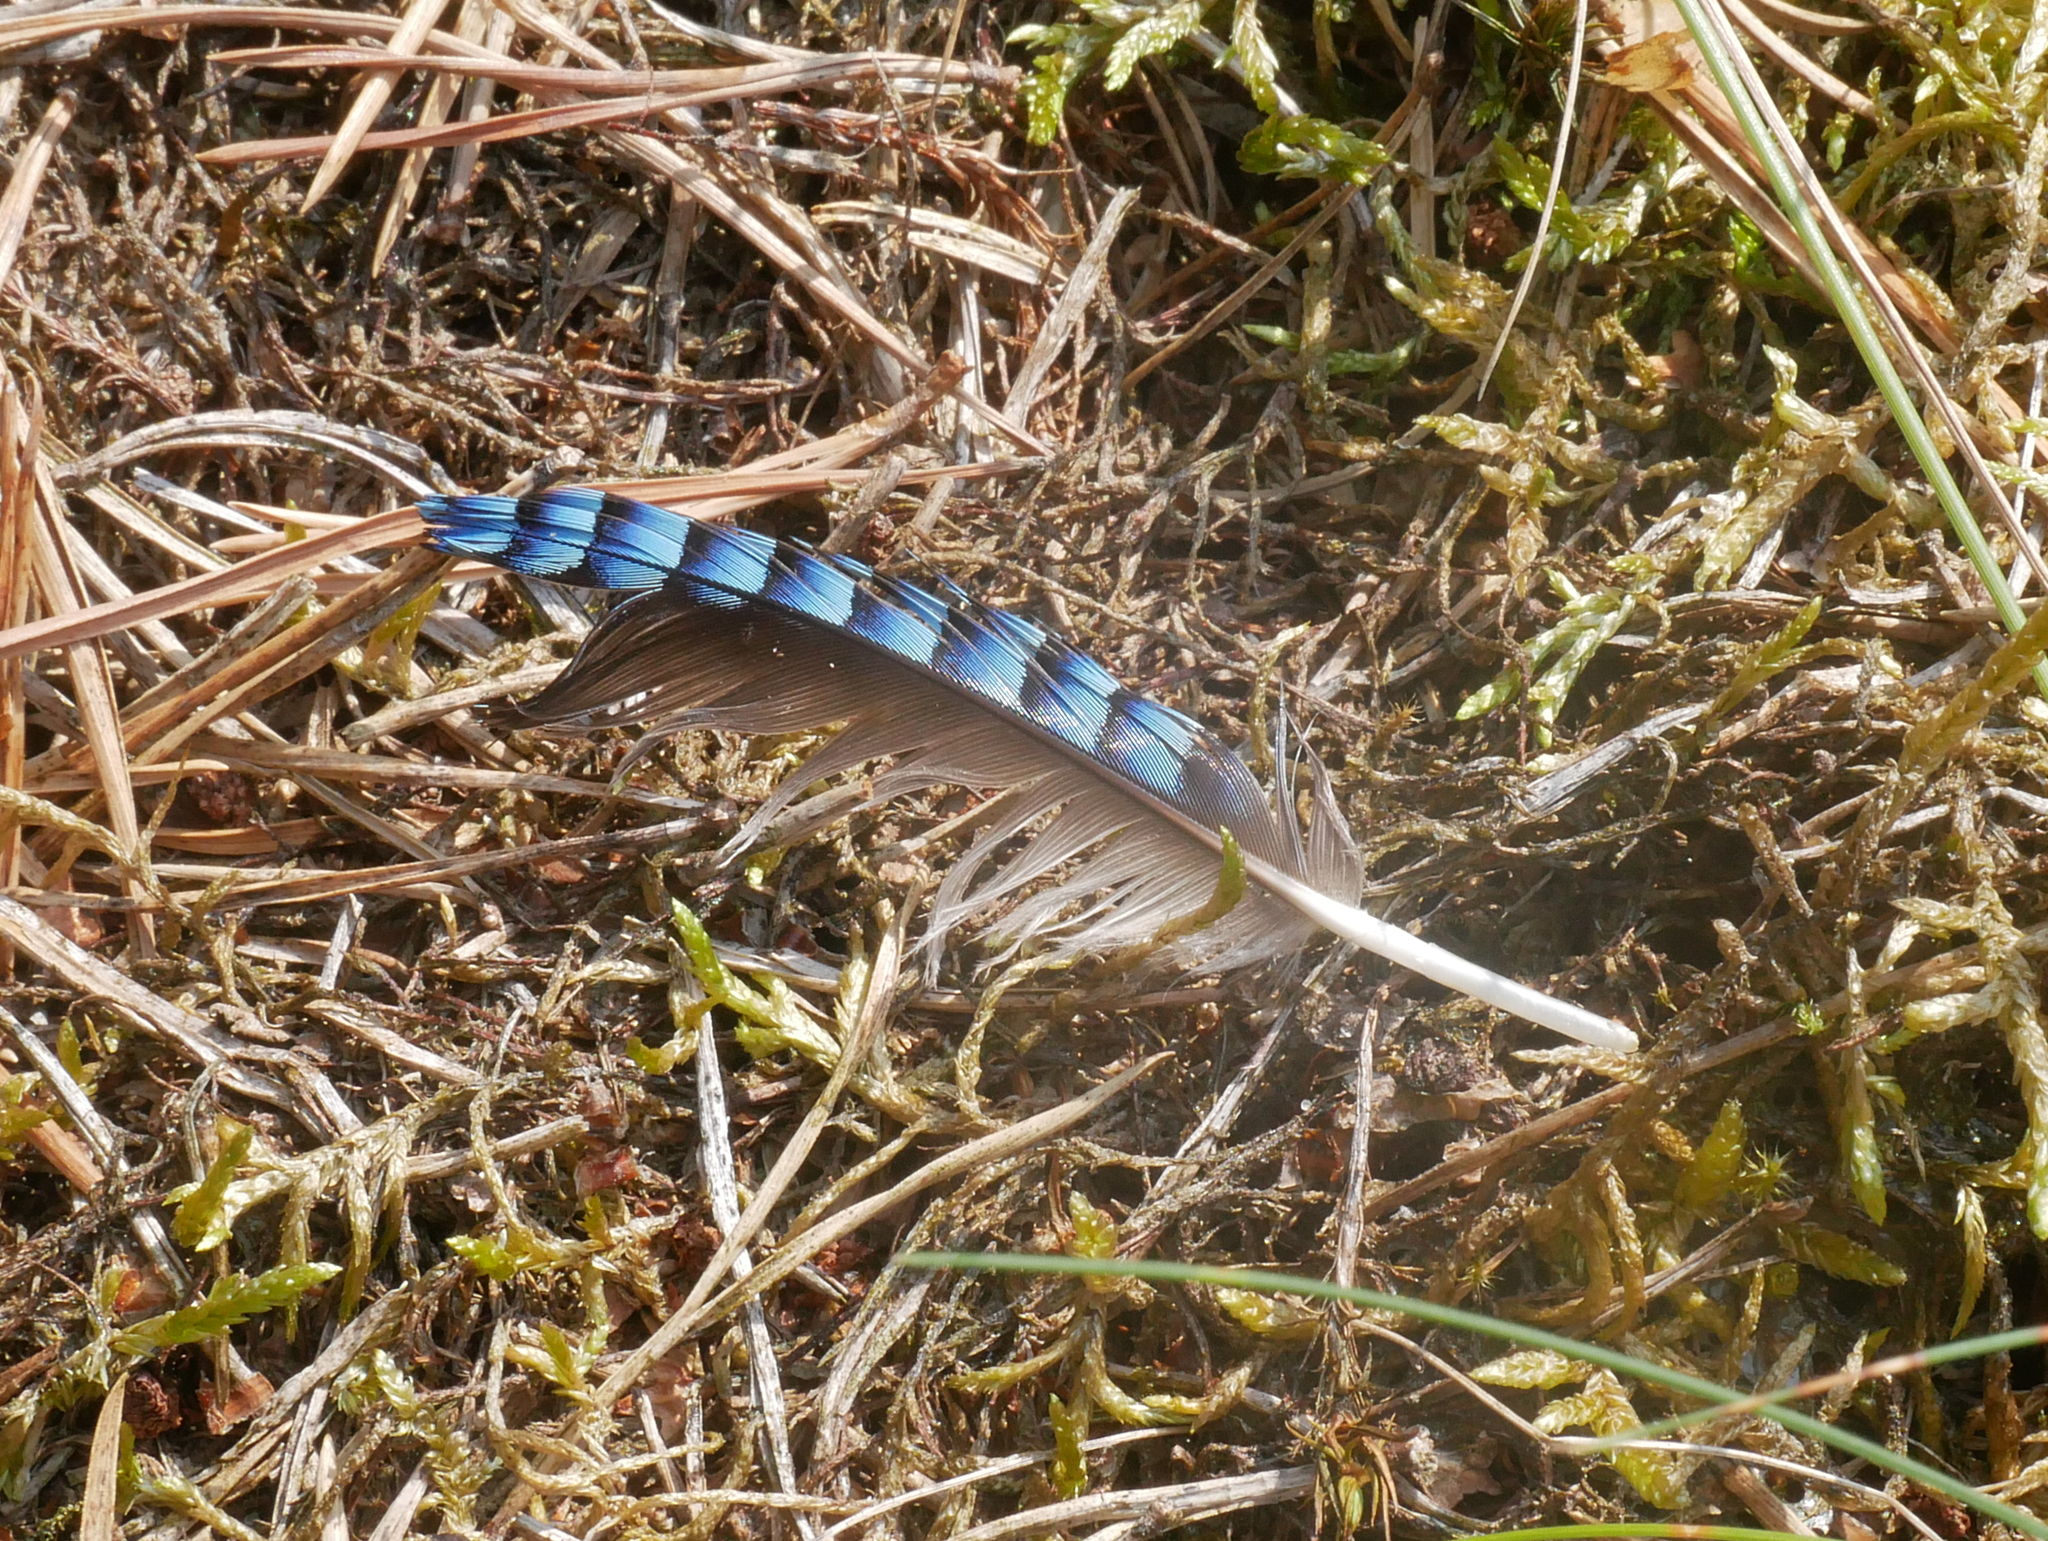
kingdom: Animalia
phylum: Chordata
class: Aves
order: Passeriformes
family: Corvidae
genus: Garrulus
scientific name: Garrulus glandarius
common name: Eurasian jay
